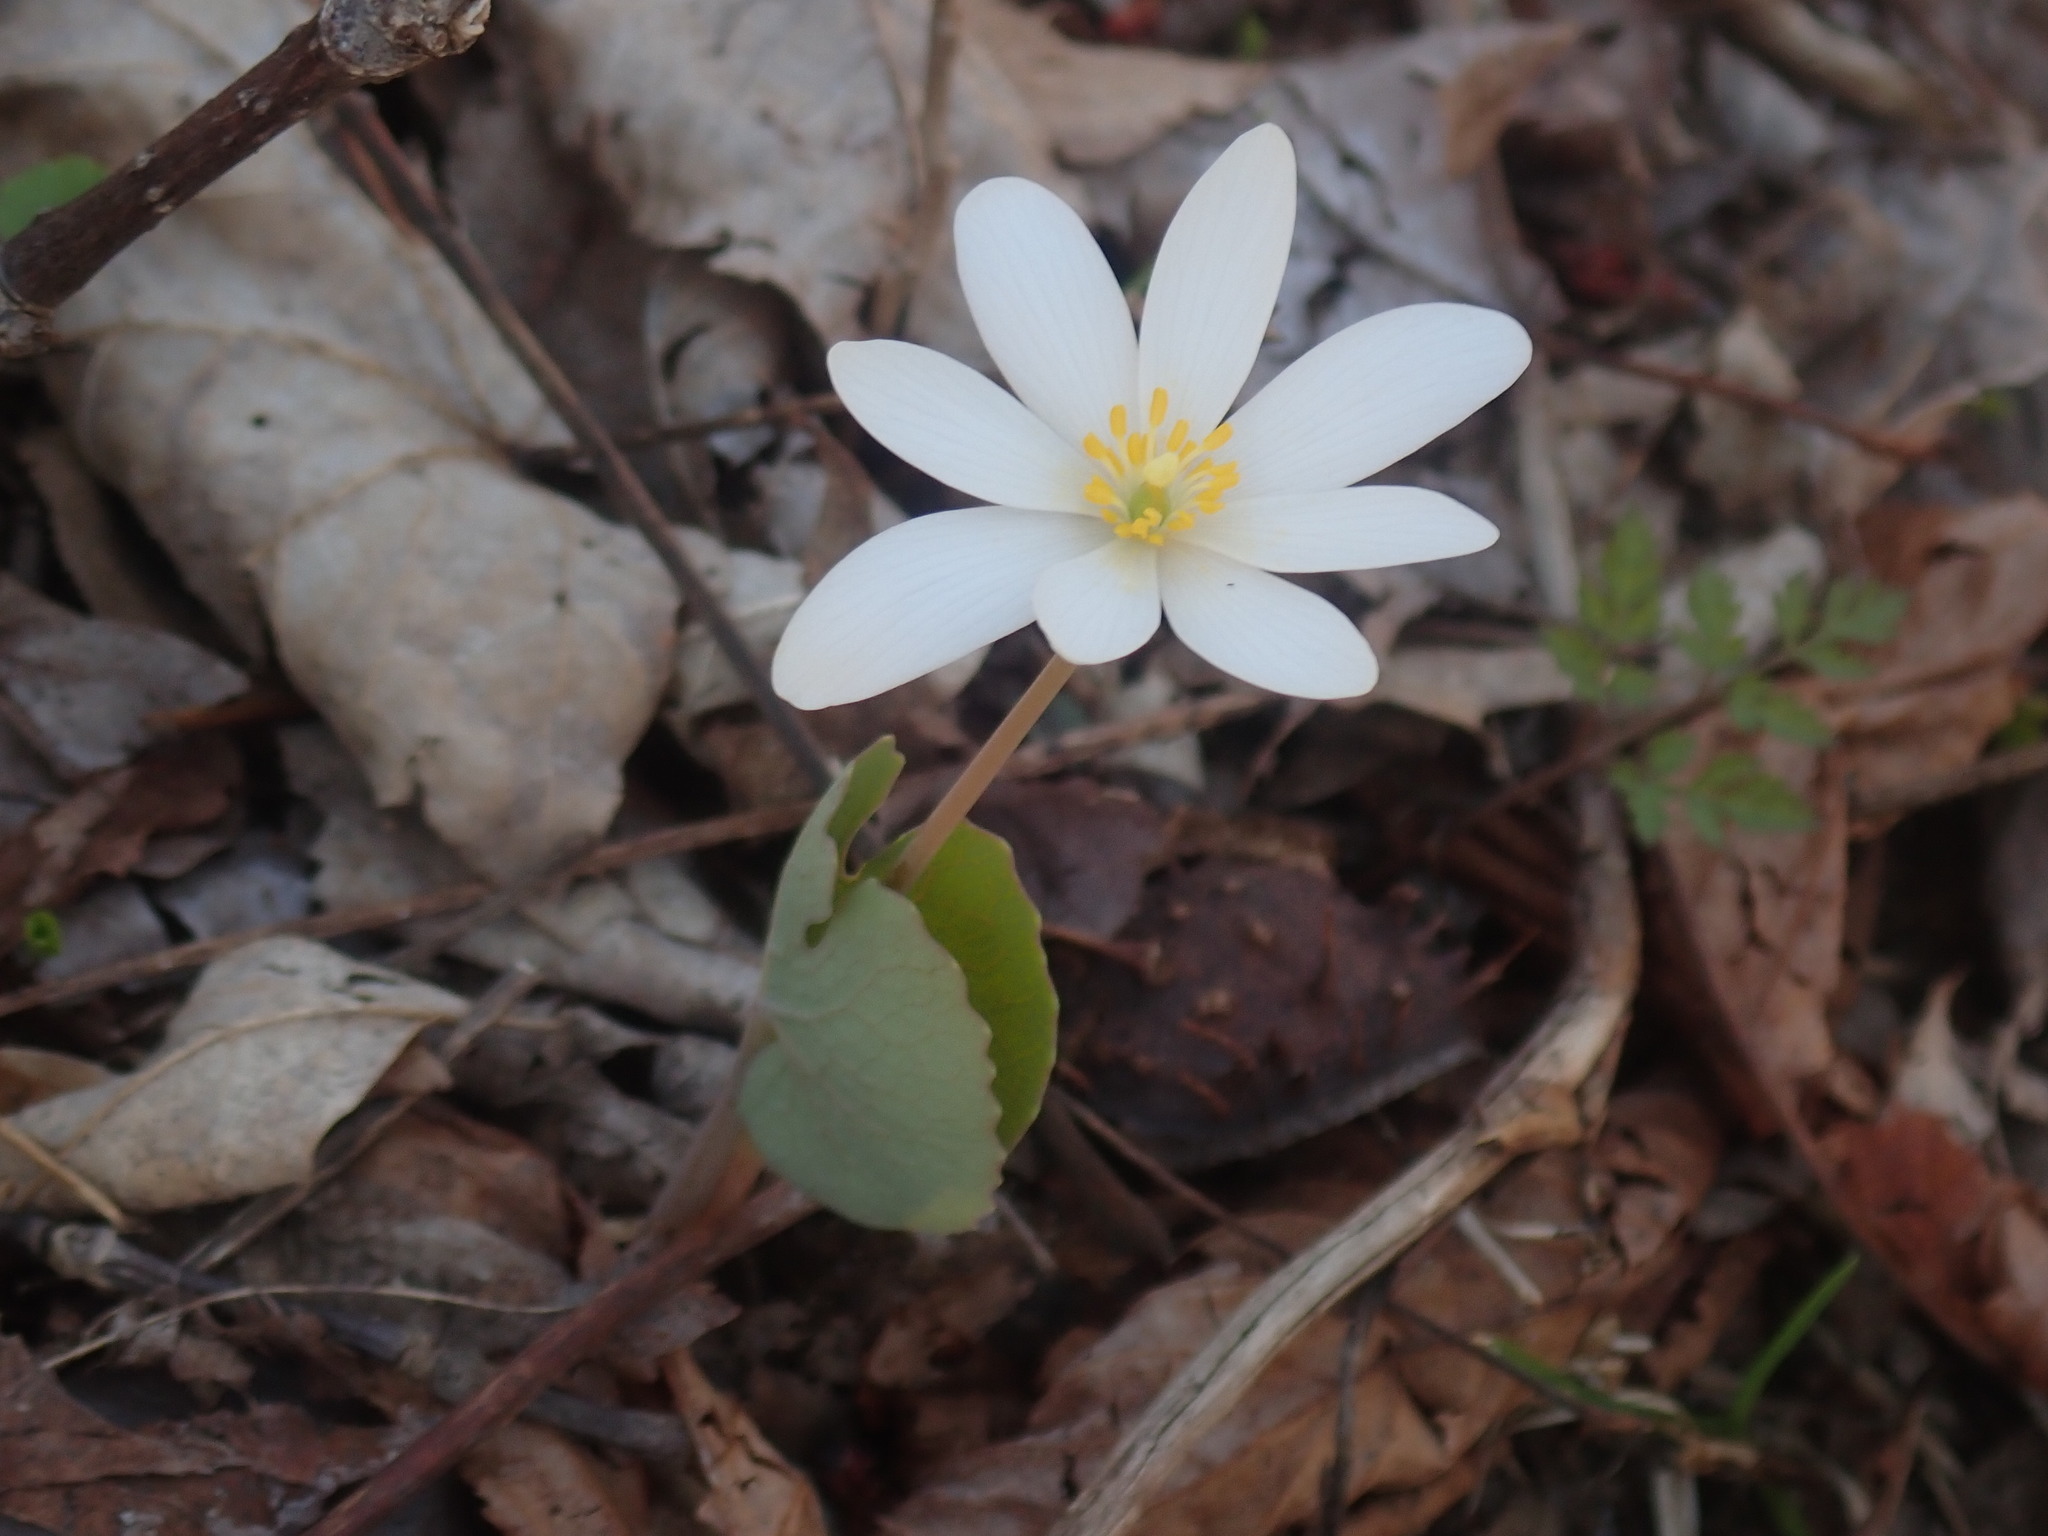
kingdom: Plantae
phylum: Tracheophyta
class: Magnoliopsida
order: Ranunculales
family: Papaveraceae
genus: Sanguinaria
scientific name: Sanguinaria canadensis
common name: Bloodroot
